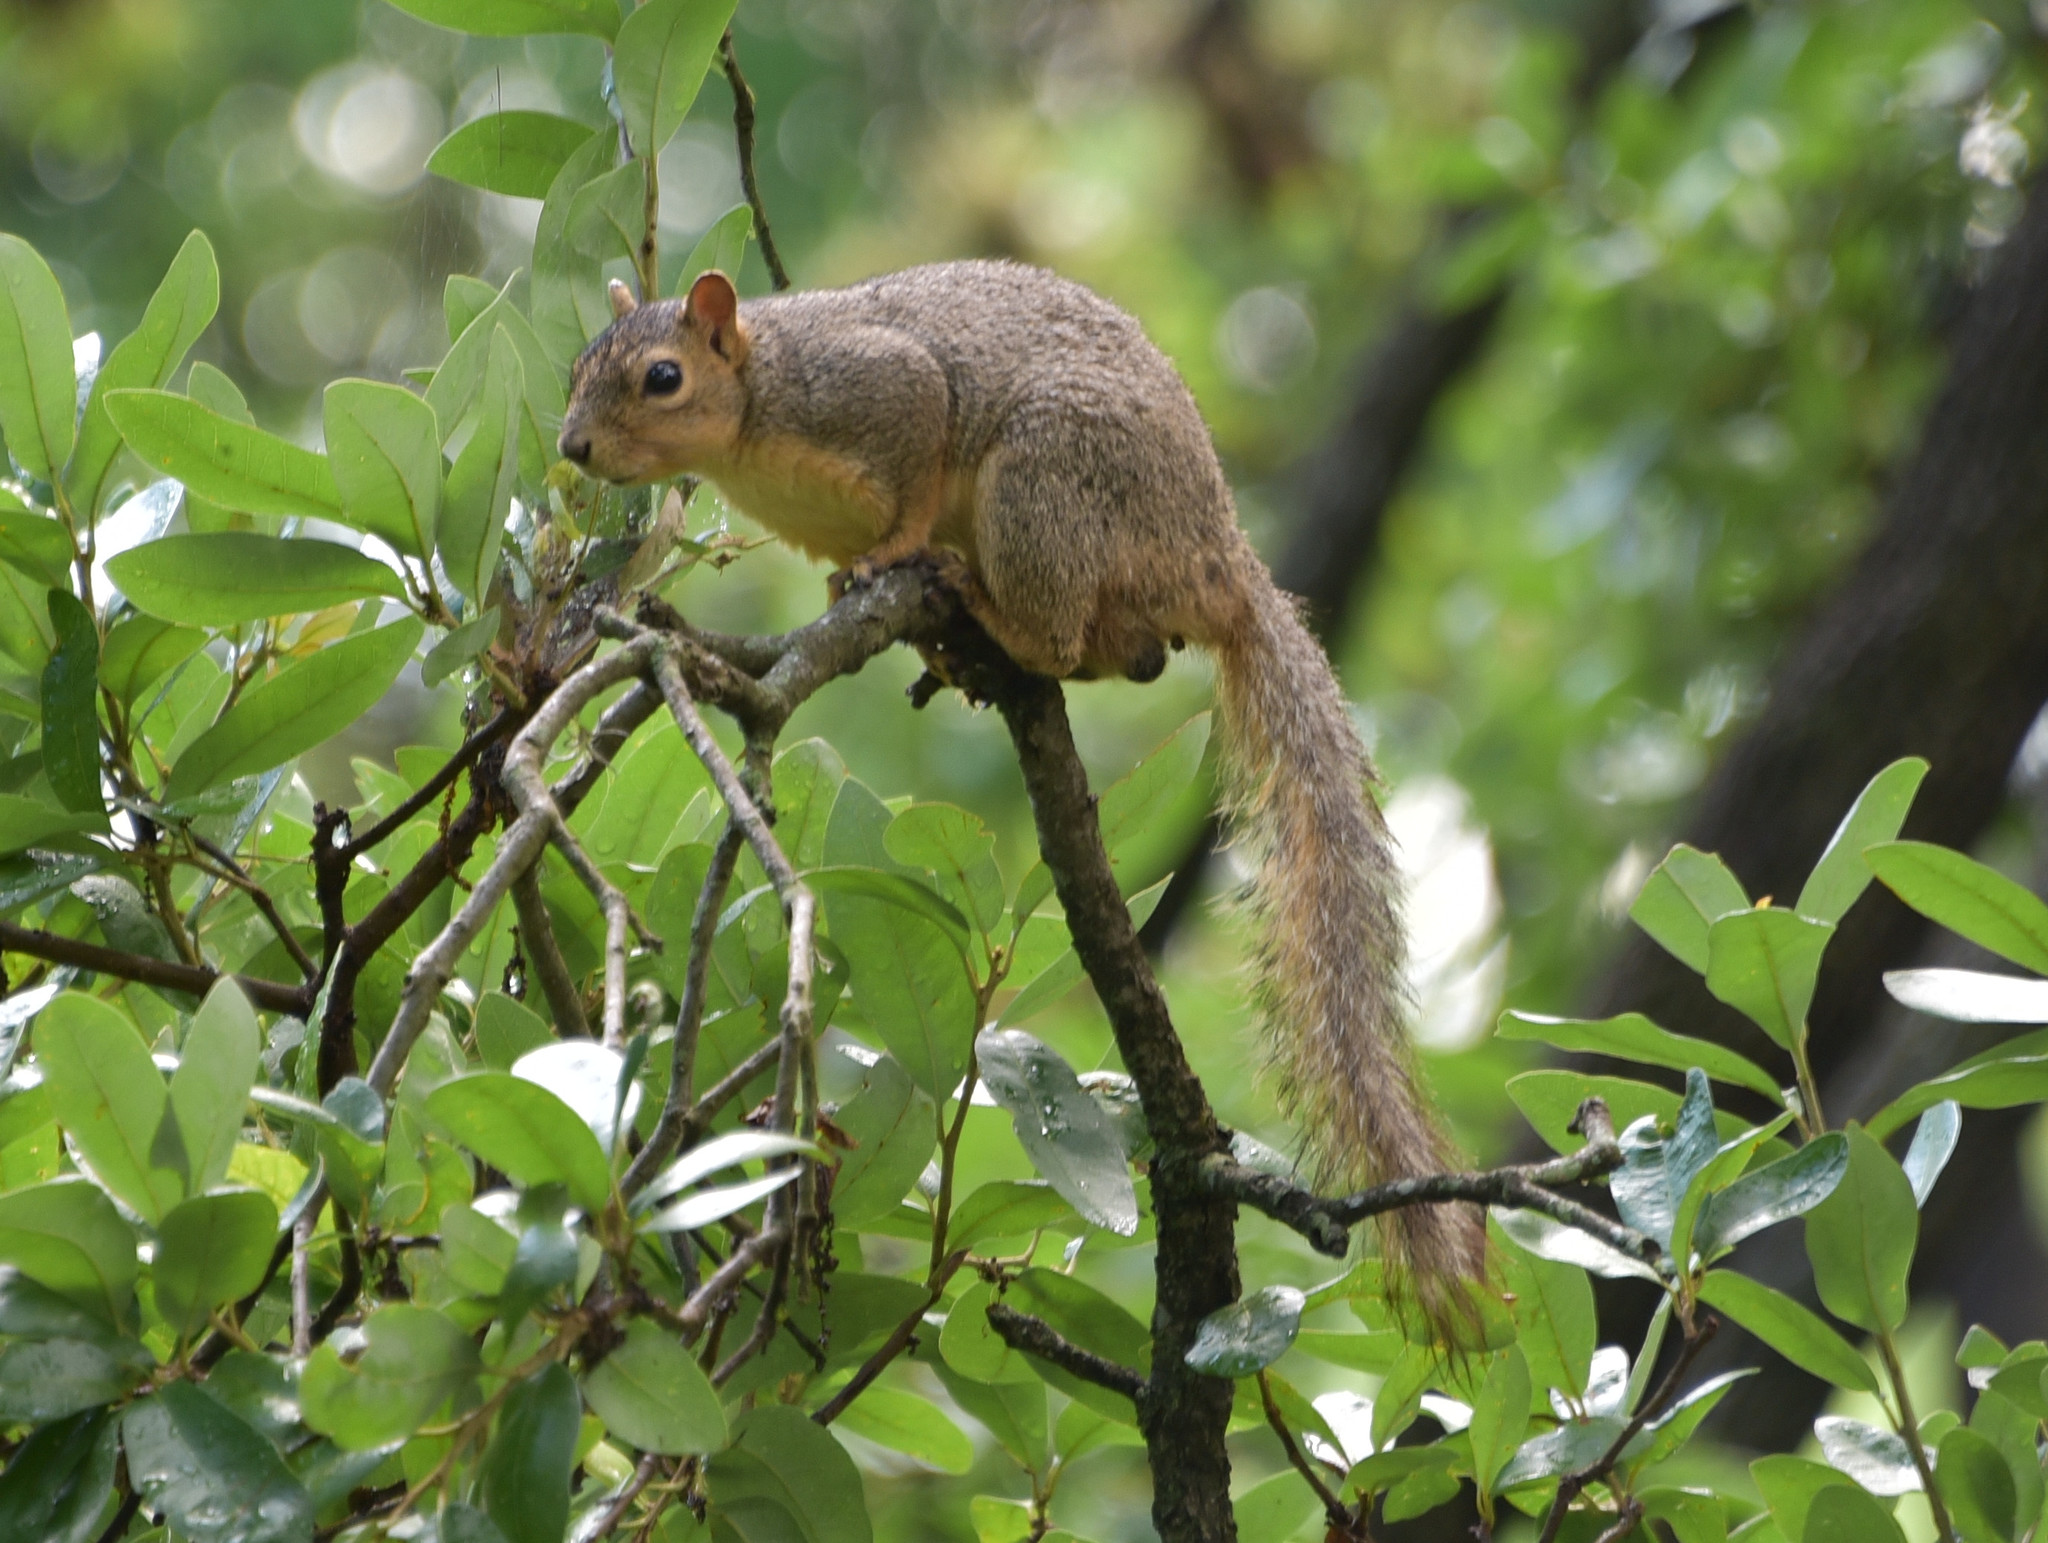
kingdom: Animalia
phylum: Chordata
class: Mammalia
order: Rodentia
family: Sciuridae
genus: Sciurus
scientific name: Sciurus niger
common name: Fox squirrel
